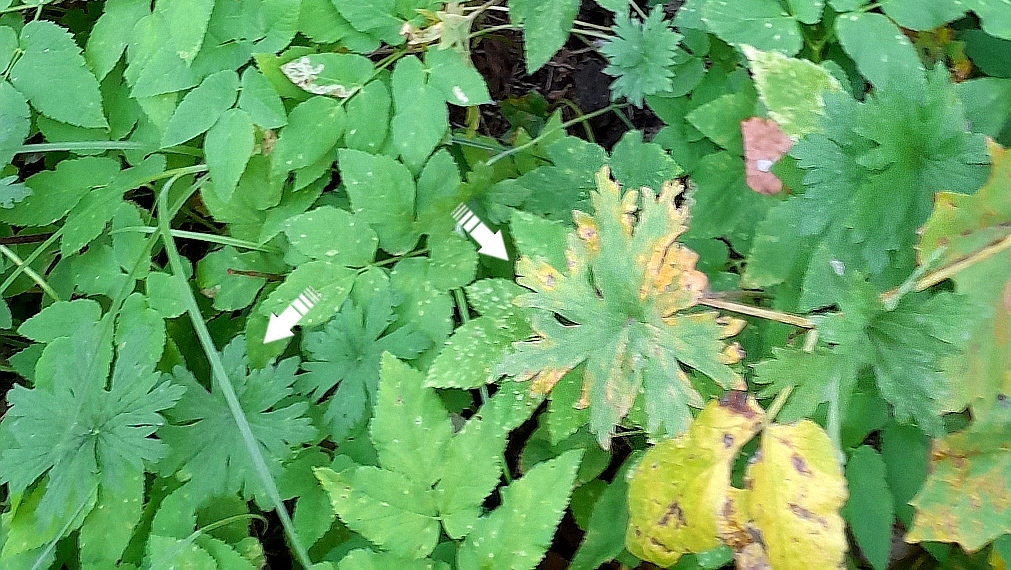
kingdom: Plantae
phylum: Tracheophyta
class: Magnoliopsida
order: Geraniales
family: Geraniaceae
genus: Geranium
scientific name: Geranium pratense
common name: Meadow crane's-bill
